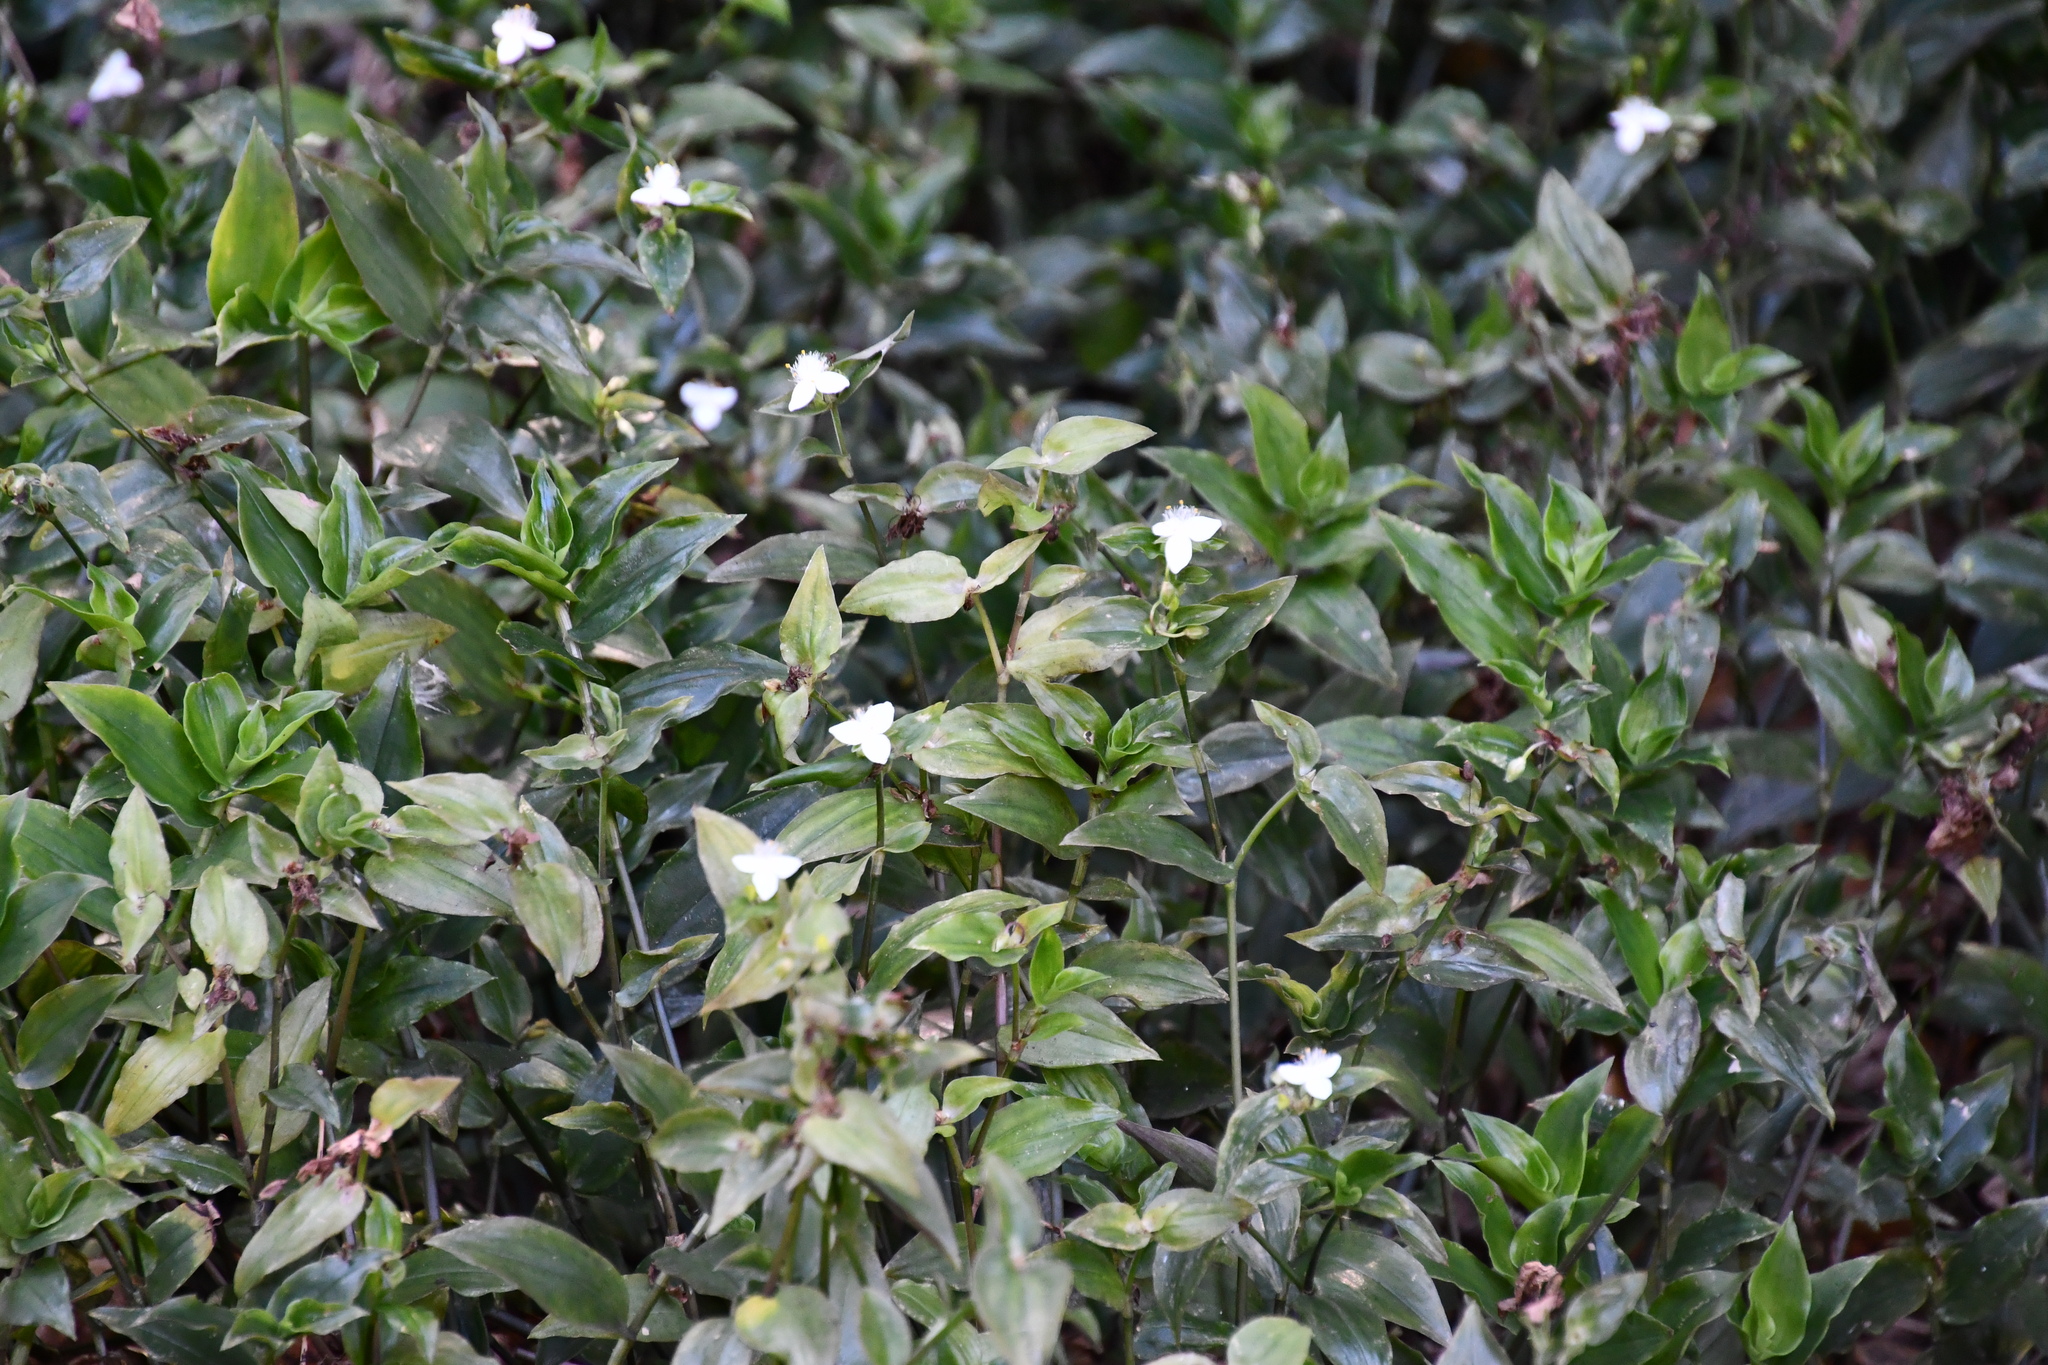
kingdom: Plantae
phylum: Tracheophyta
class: Liliopsida
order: Commelinales
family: Commelinaceae
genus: Tradescantia
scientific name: Tradescantia fluminensis
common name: Wandering-jew
